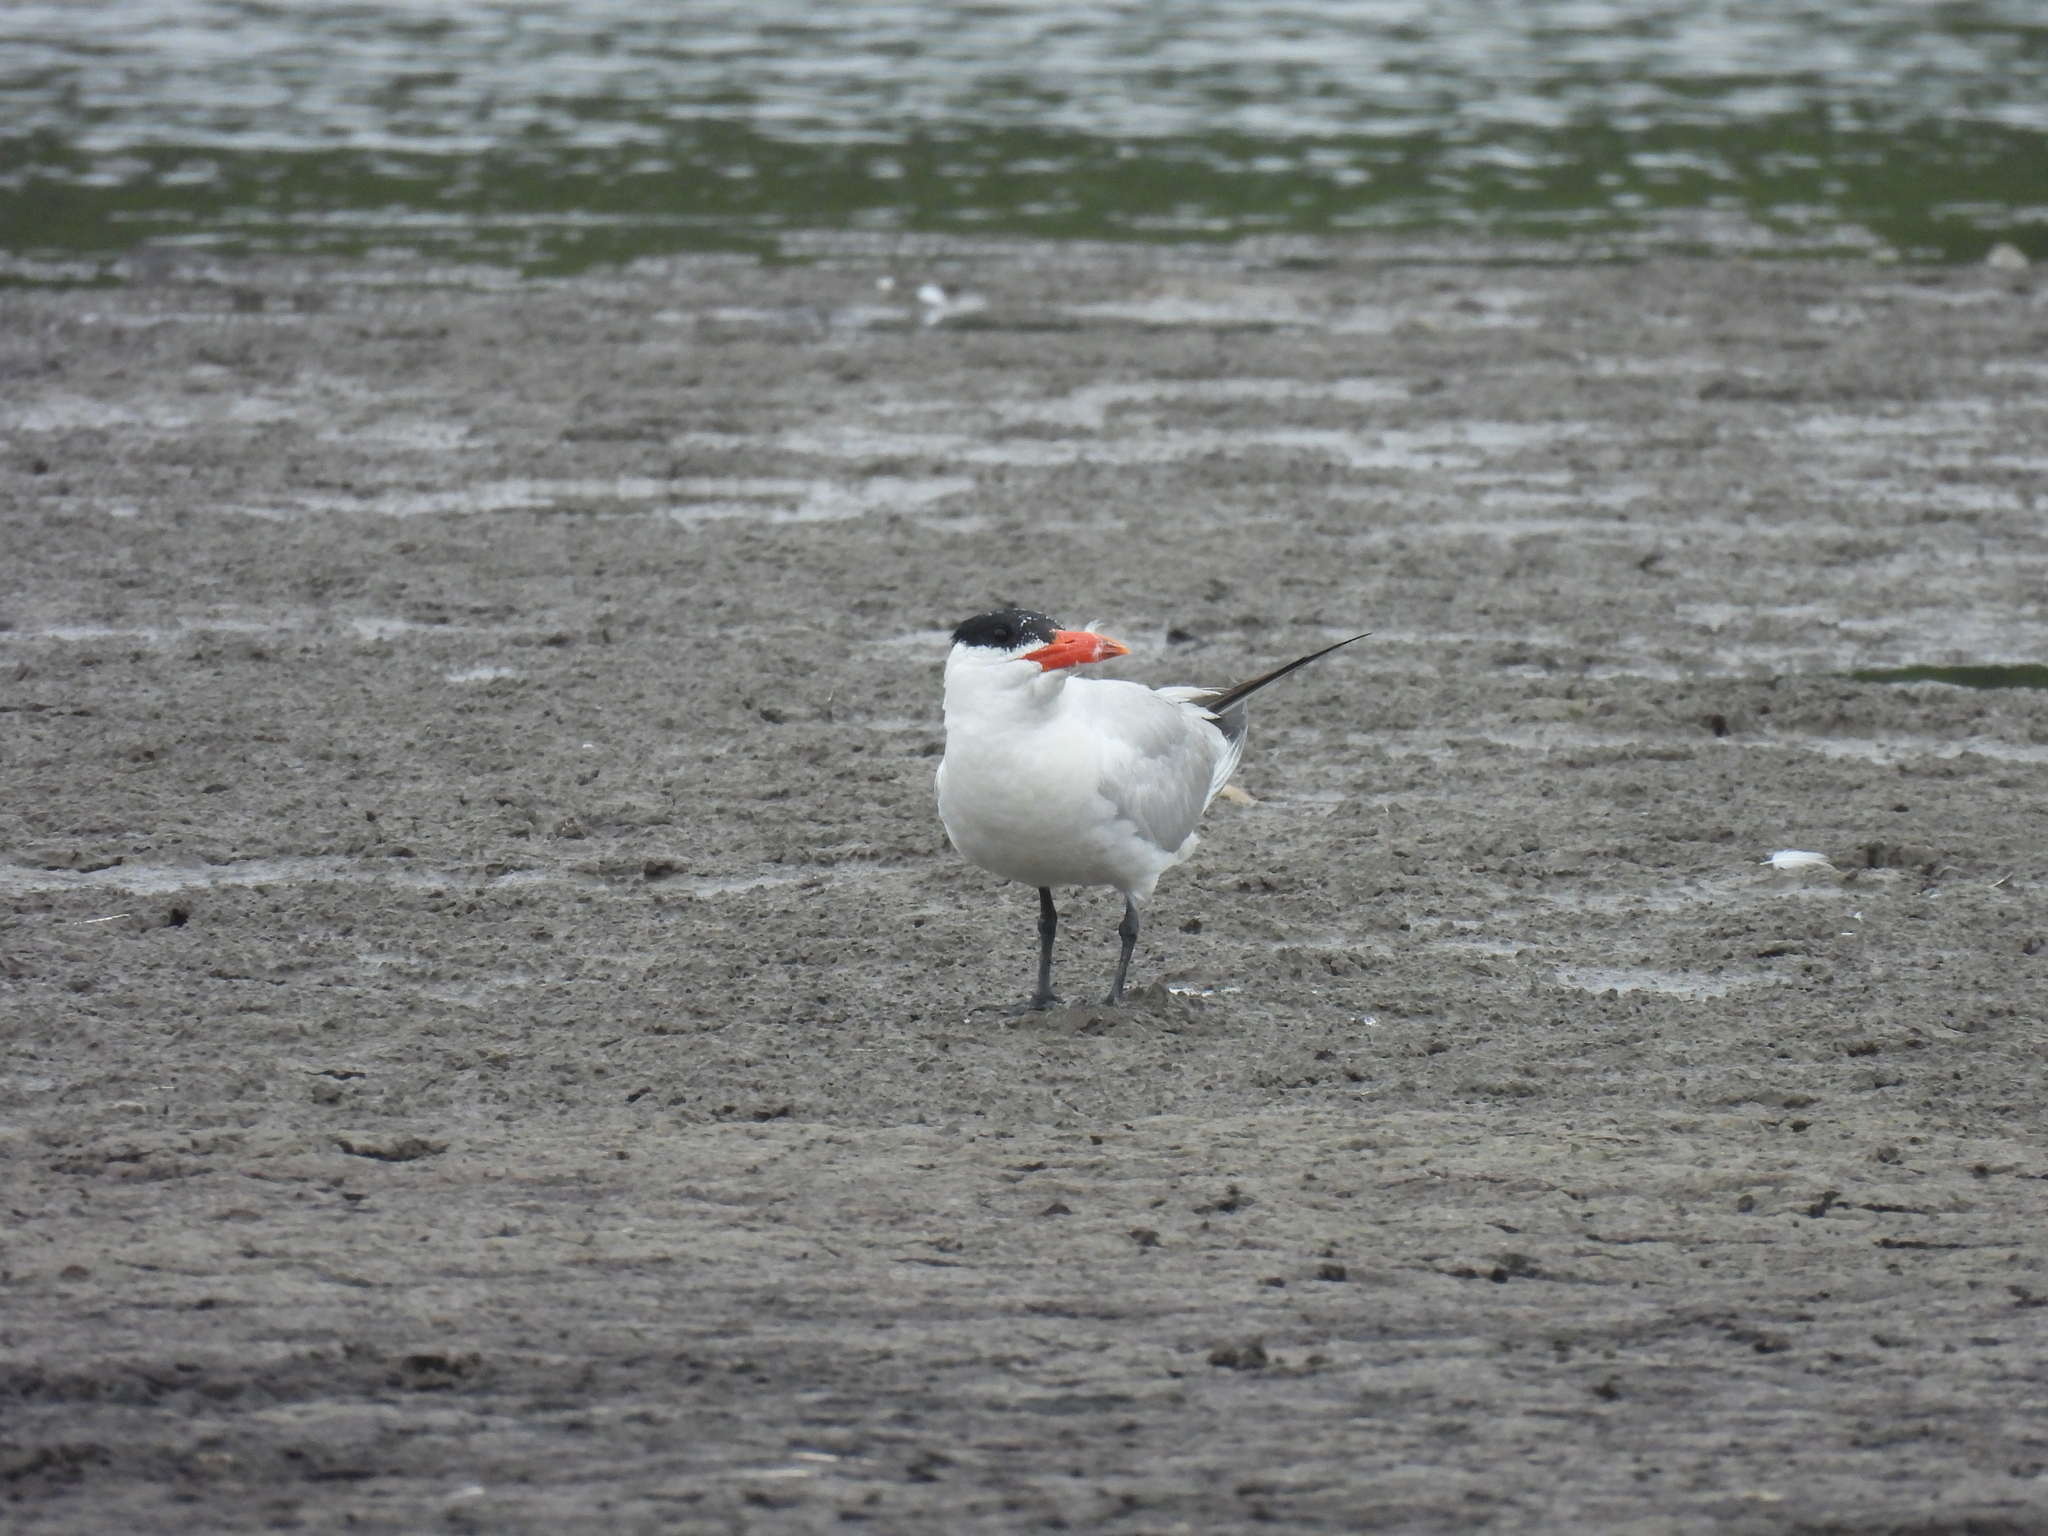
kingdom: Animalia
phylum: Chordata
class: Aves
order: Charadriiformes
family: Laridae
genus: Hydroprogne
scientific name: Hydroprogne caspia
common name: Caspian tern
